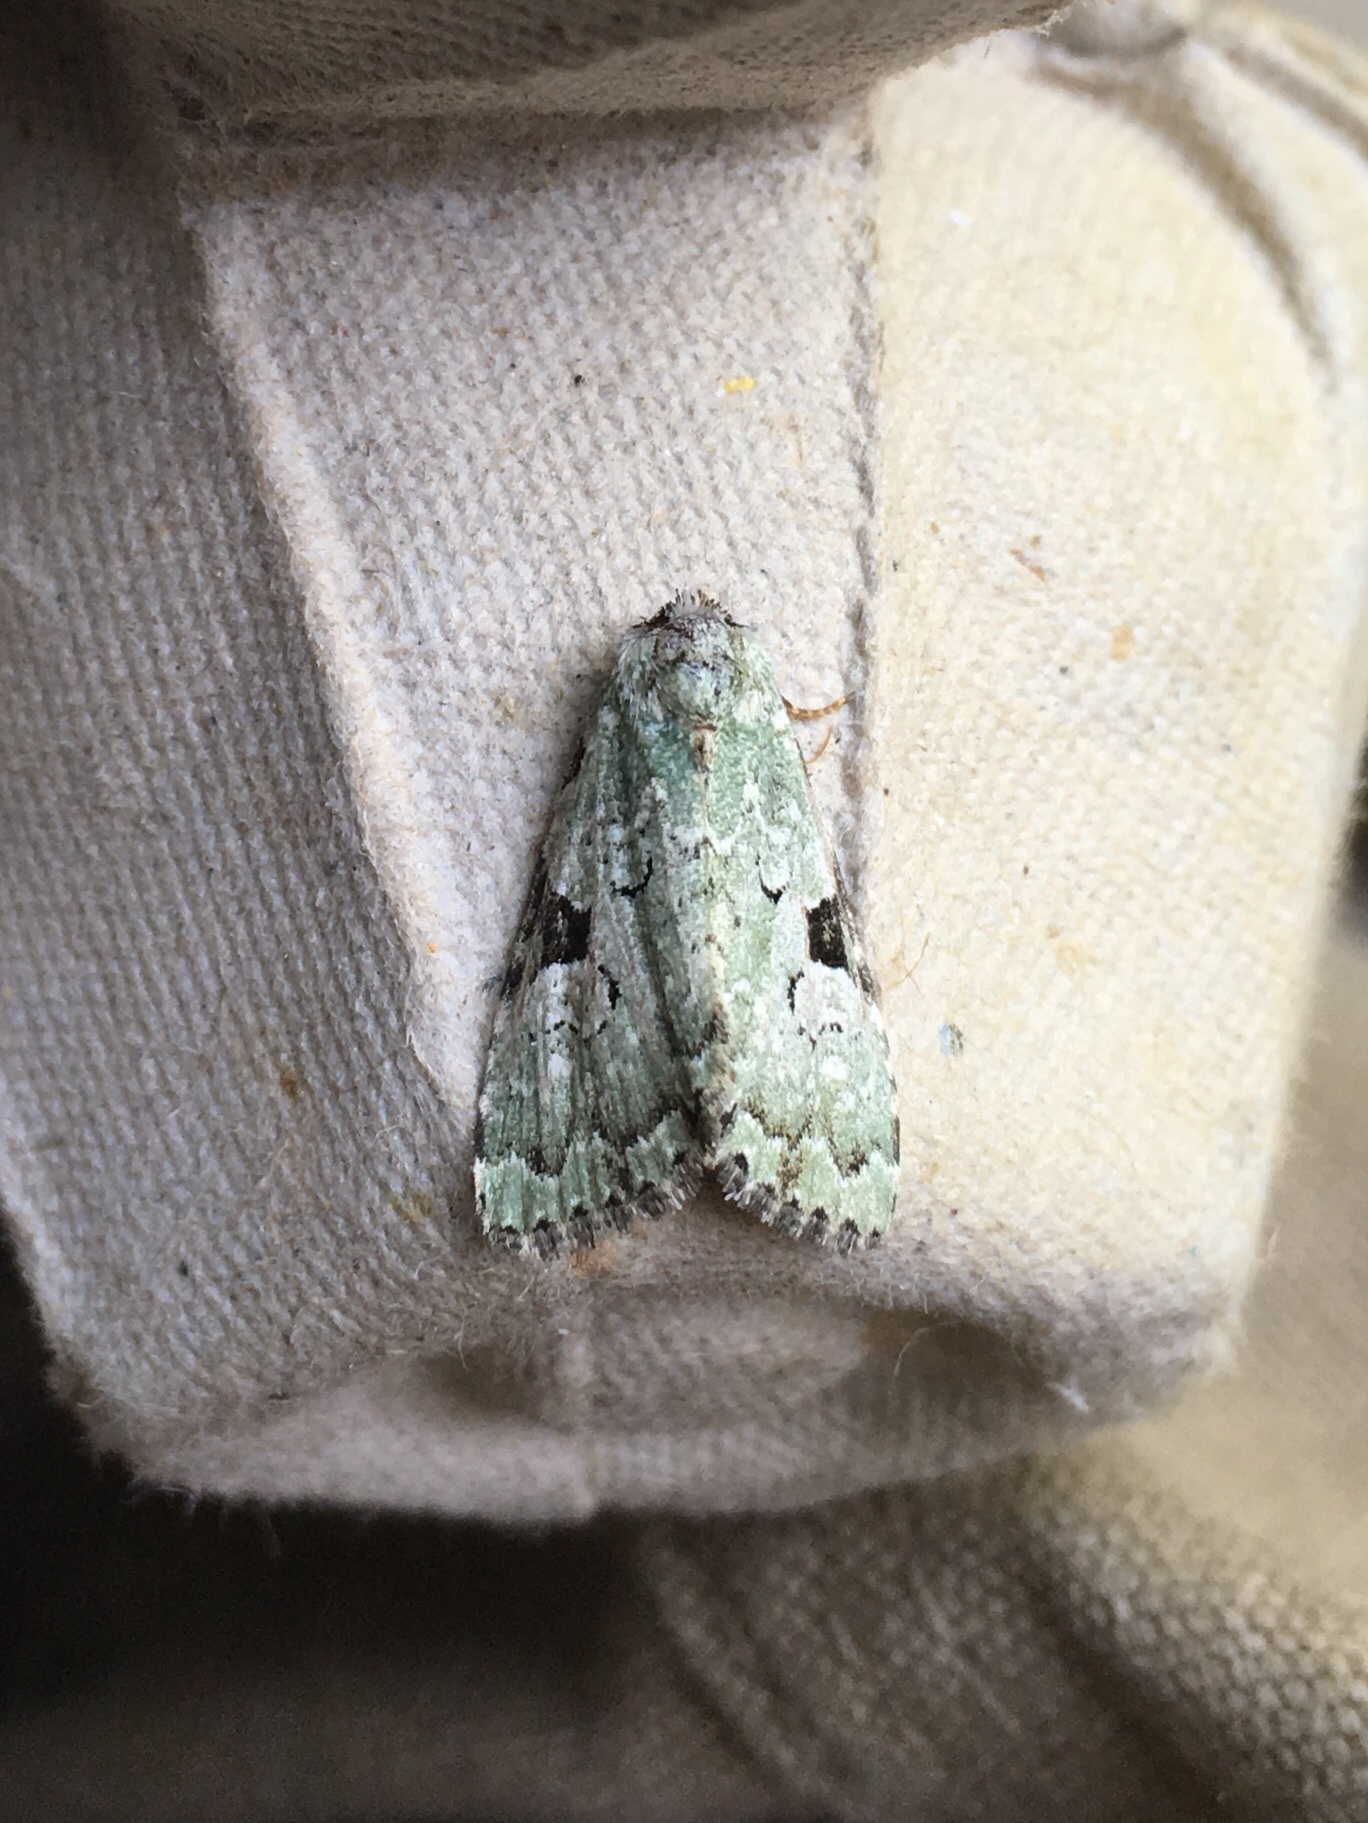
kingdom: Animalia
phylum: Arthropoda
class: Insecta
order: Lepidoptera
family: Noctuidae
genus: Leuconycta
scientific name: Leuconycta diphteroides
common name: Green leuconycta moth
